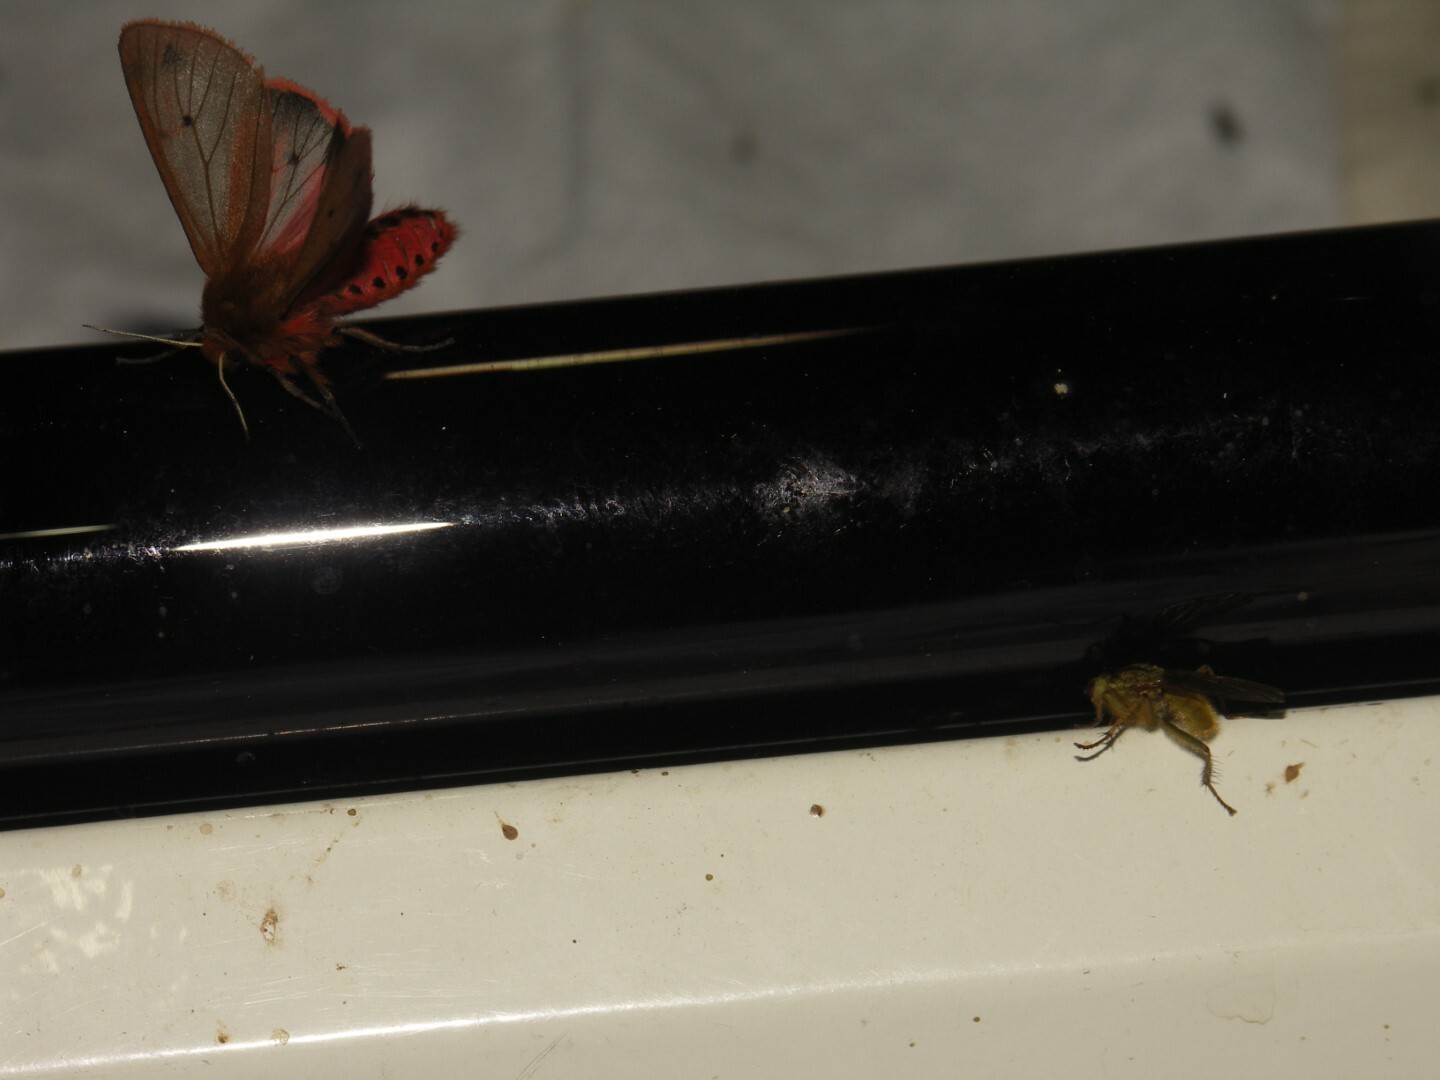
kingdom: Animalia
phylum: Arthropoda
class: Insecta
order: Lepidoptera
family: Erebidae
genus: Phragmatobia
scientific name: Phragmatobia fuliginosa
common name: Ruby tiger
